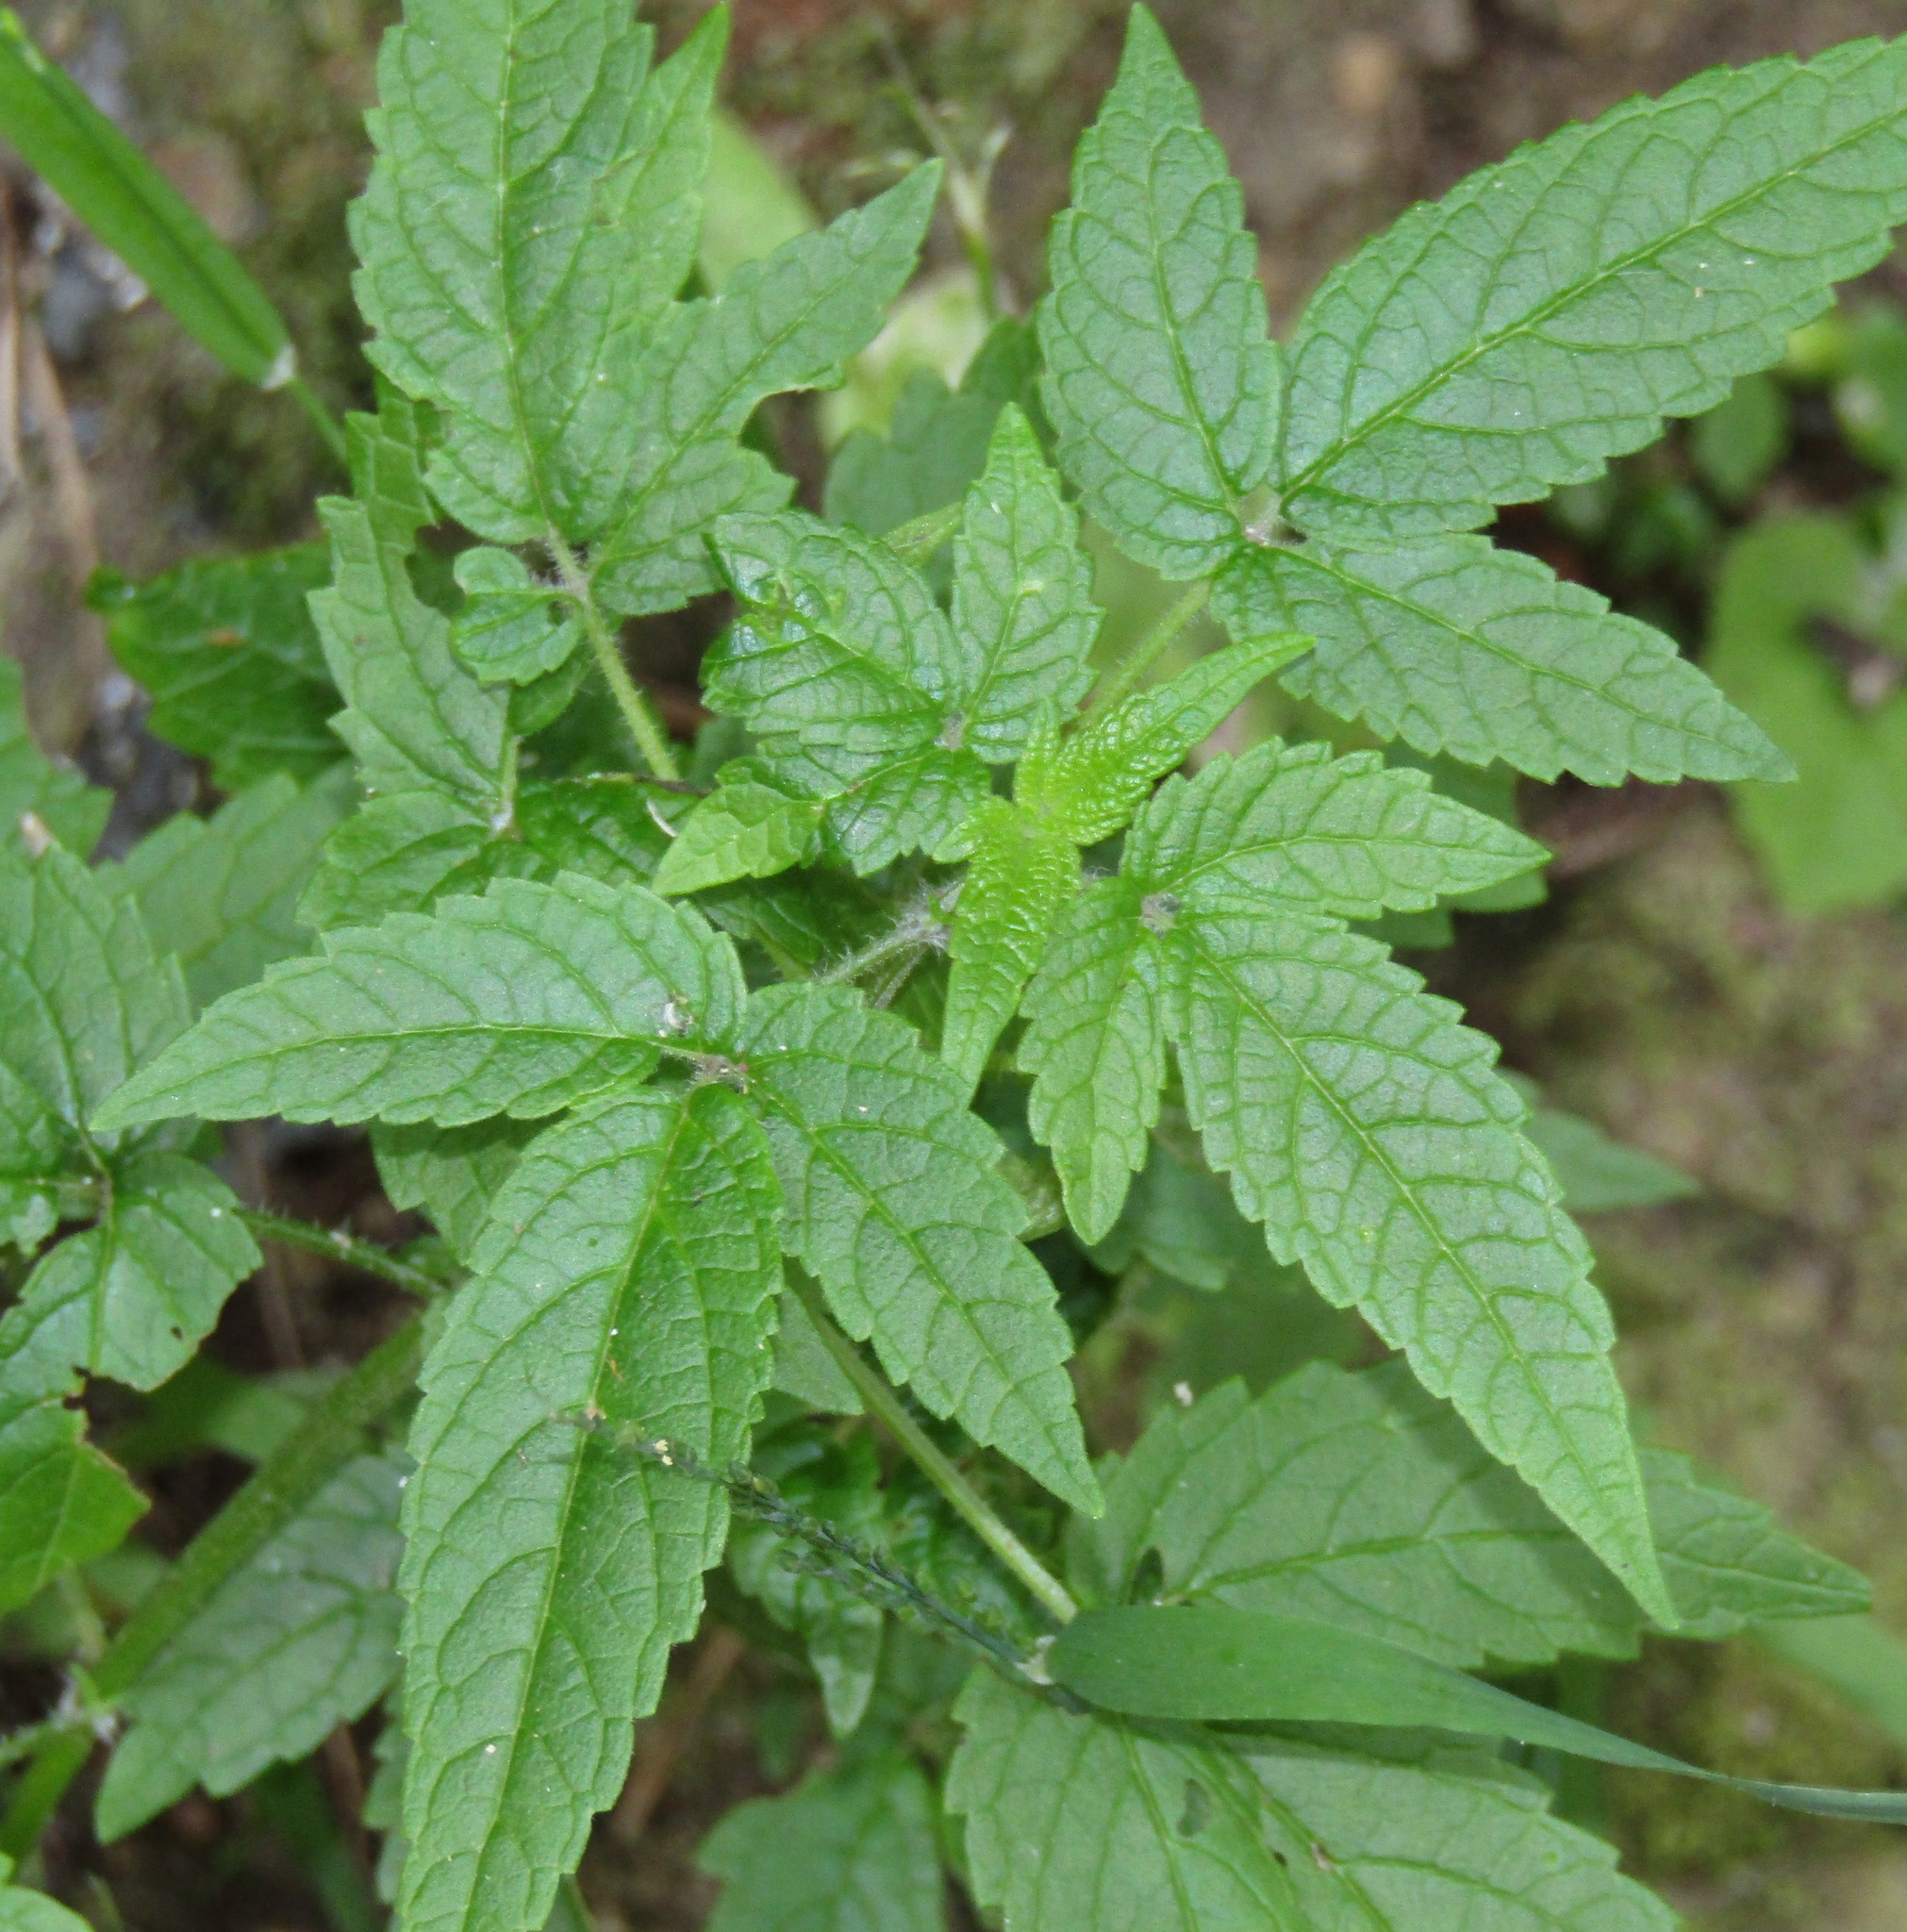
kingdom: Plantae
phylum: Tracheophyta
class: Magnoliopsida
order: Lamiales
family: Lamiaceae
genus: Cedronella
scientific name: Cedronella canariensis
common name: Canary islands balm
